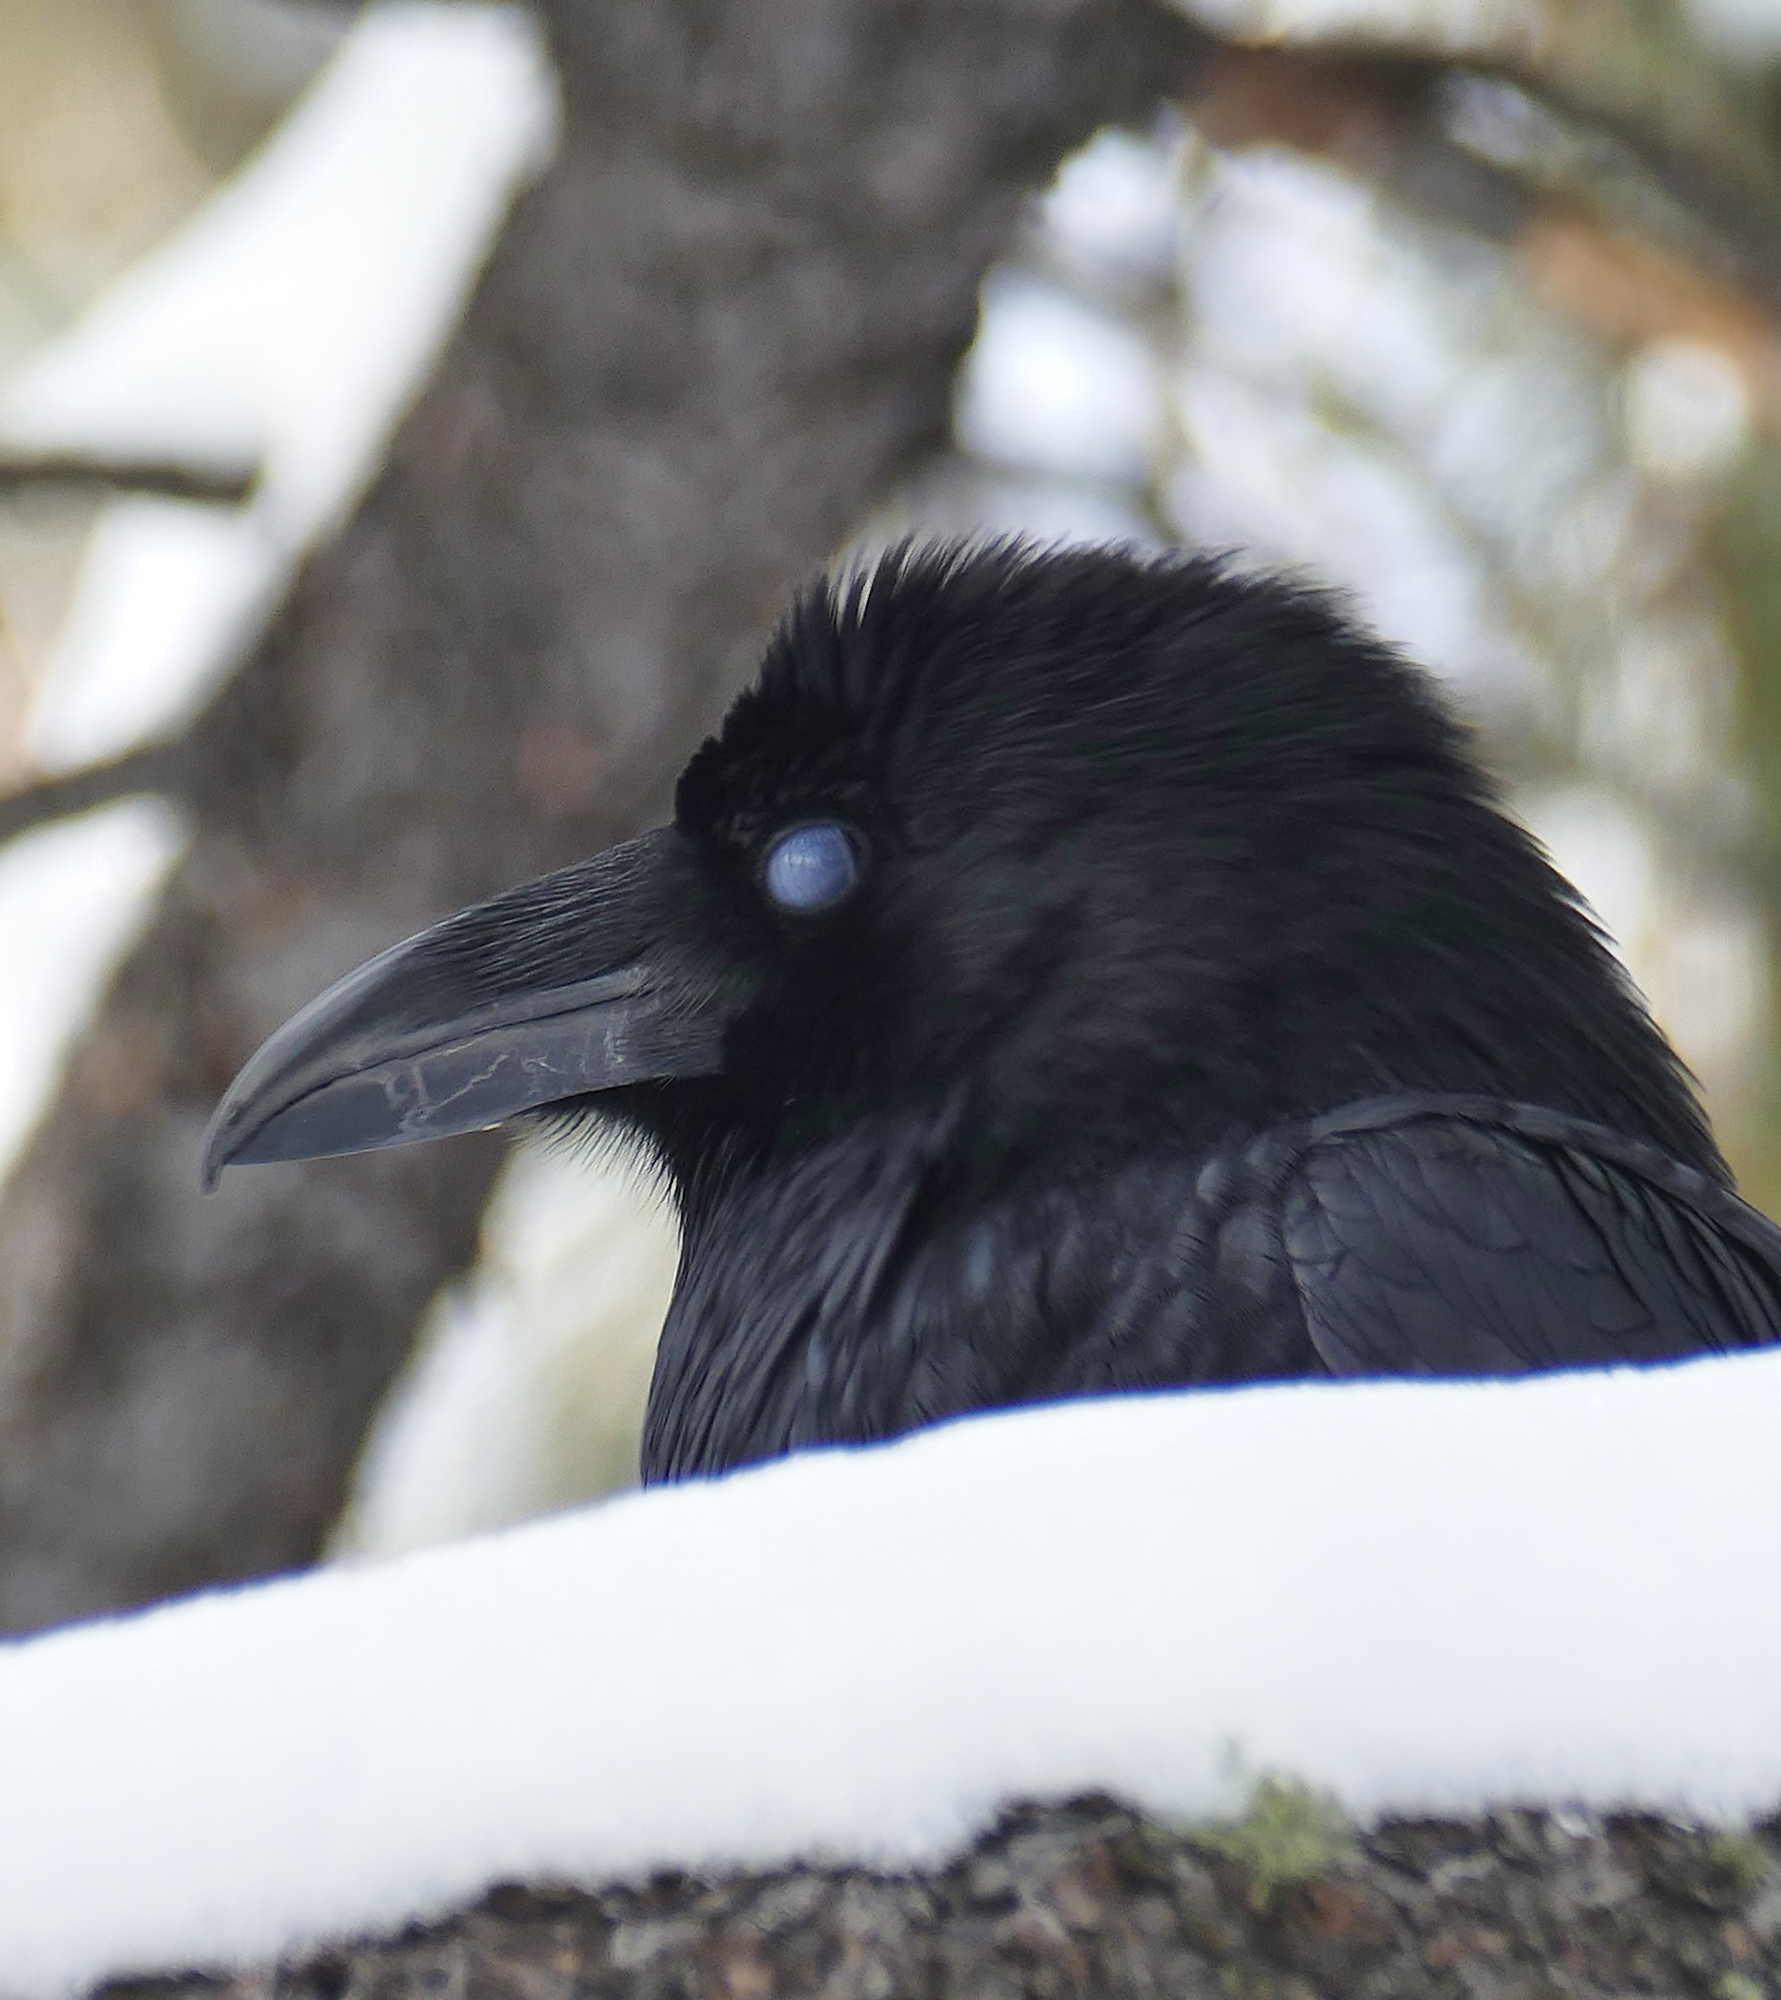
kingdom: Animalia
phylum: Chordata
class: Aves
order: Passeriformes
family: Corvidae
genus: Corvus
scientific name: Corvus corax
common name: Common raven
